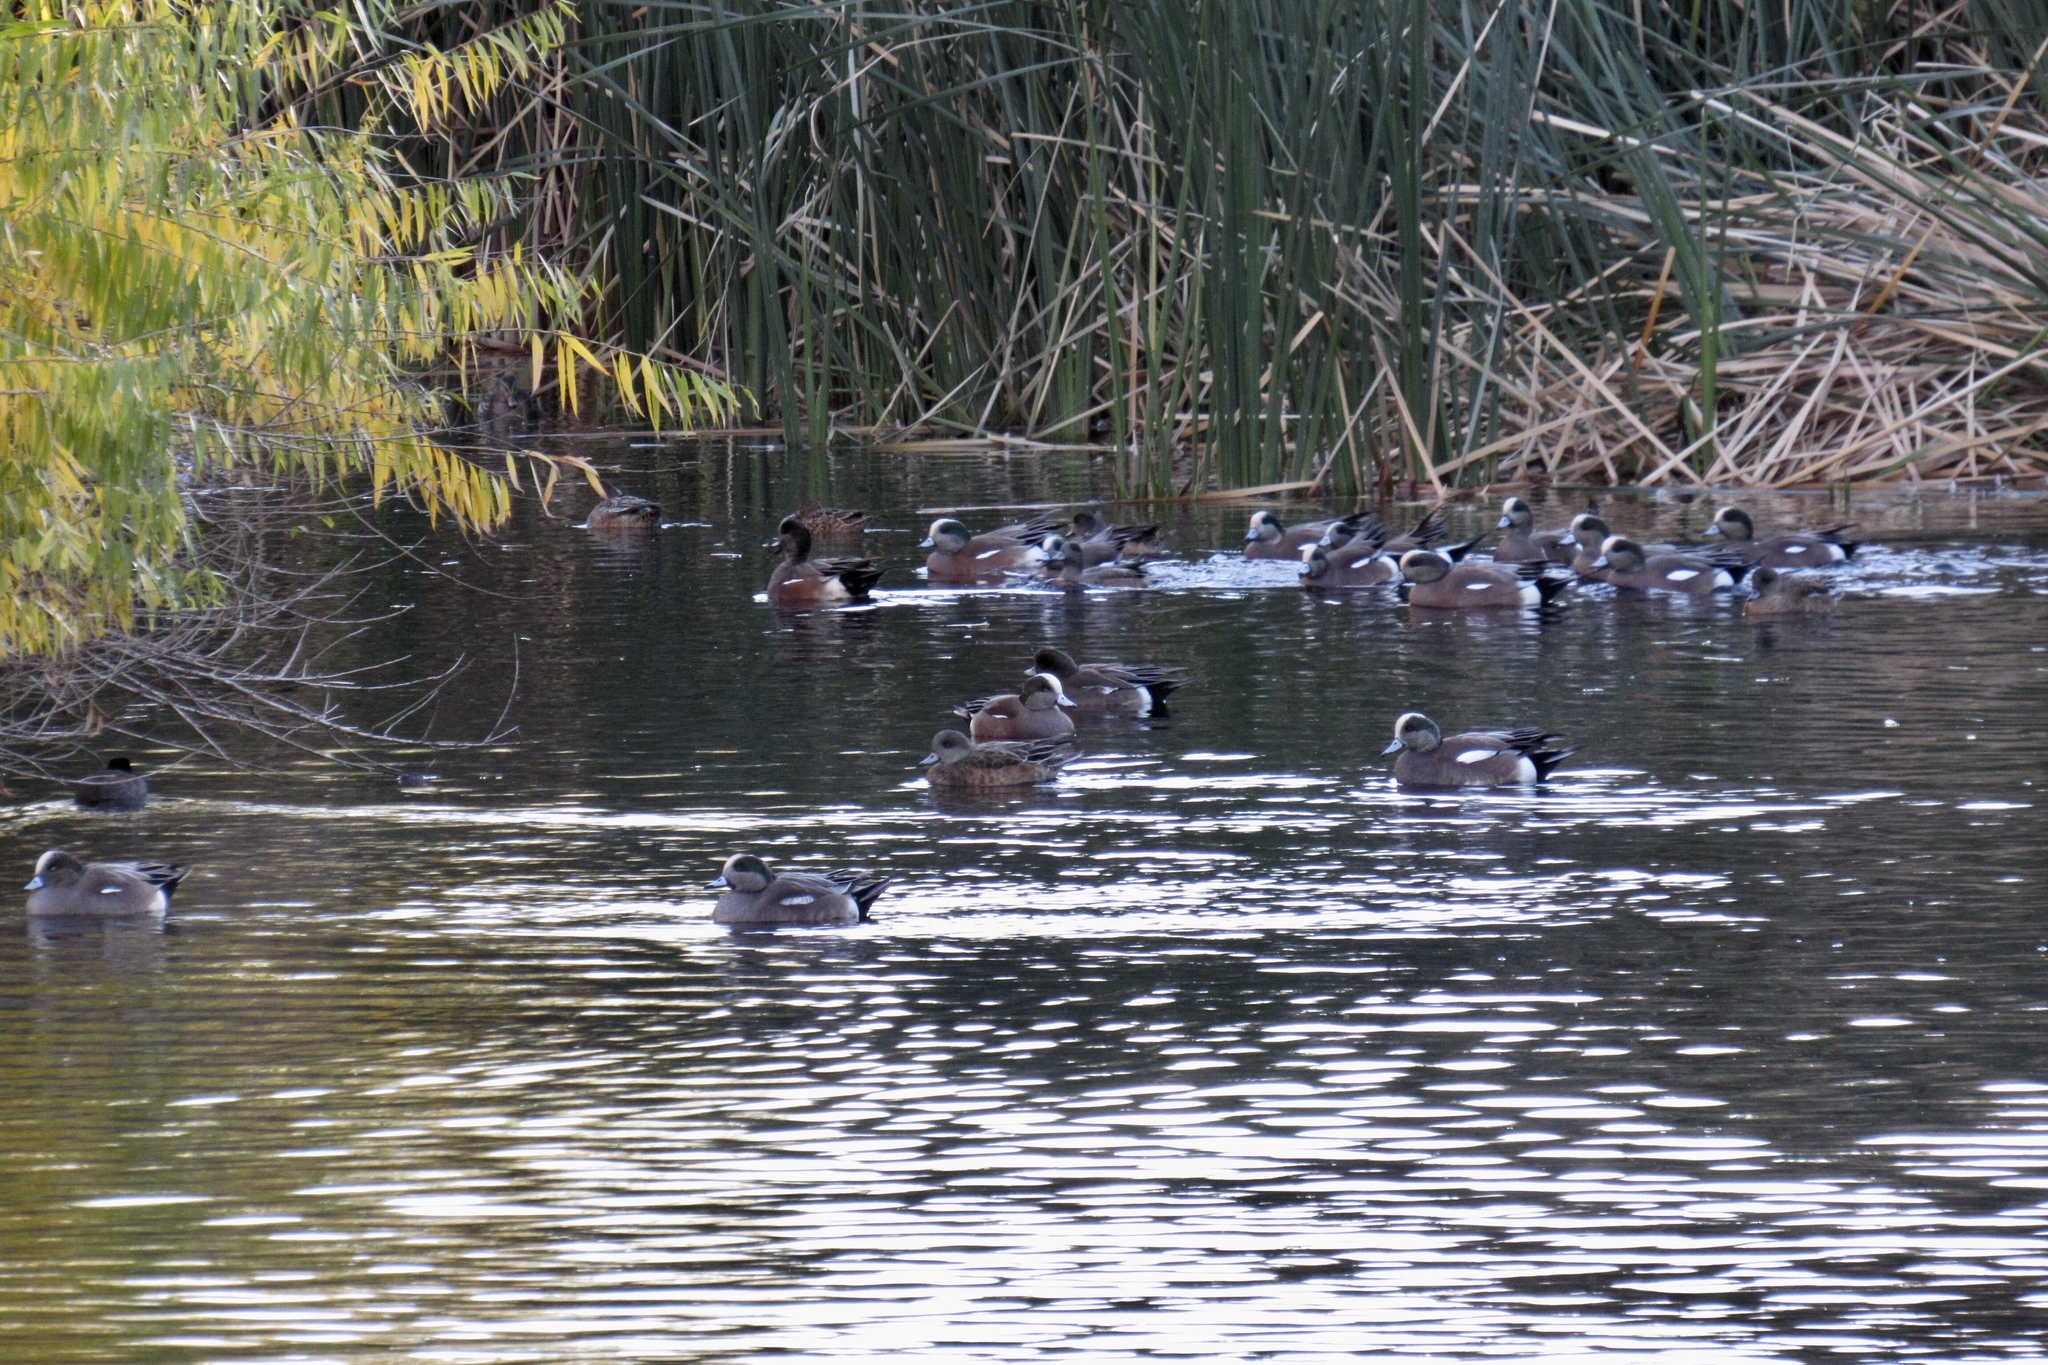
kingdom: Animalia
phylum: Chordata
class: Aves
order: Anseriformes
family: Anatidae
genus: Mareca
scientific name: Mareca americana
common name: American wigeon
